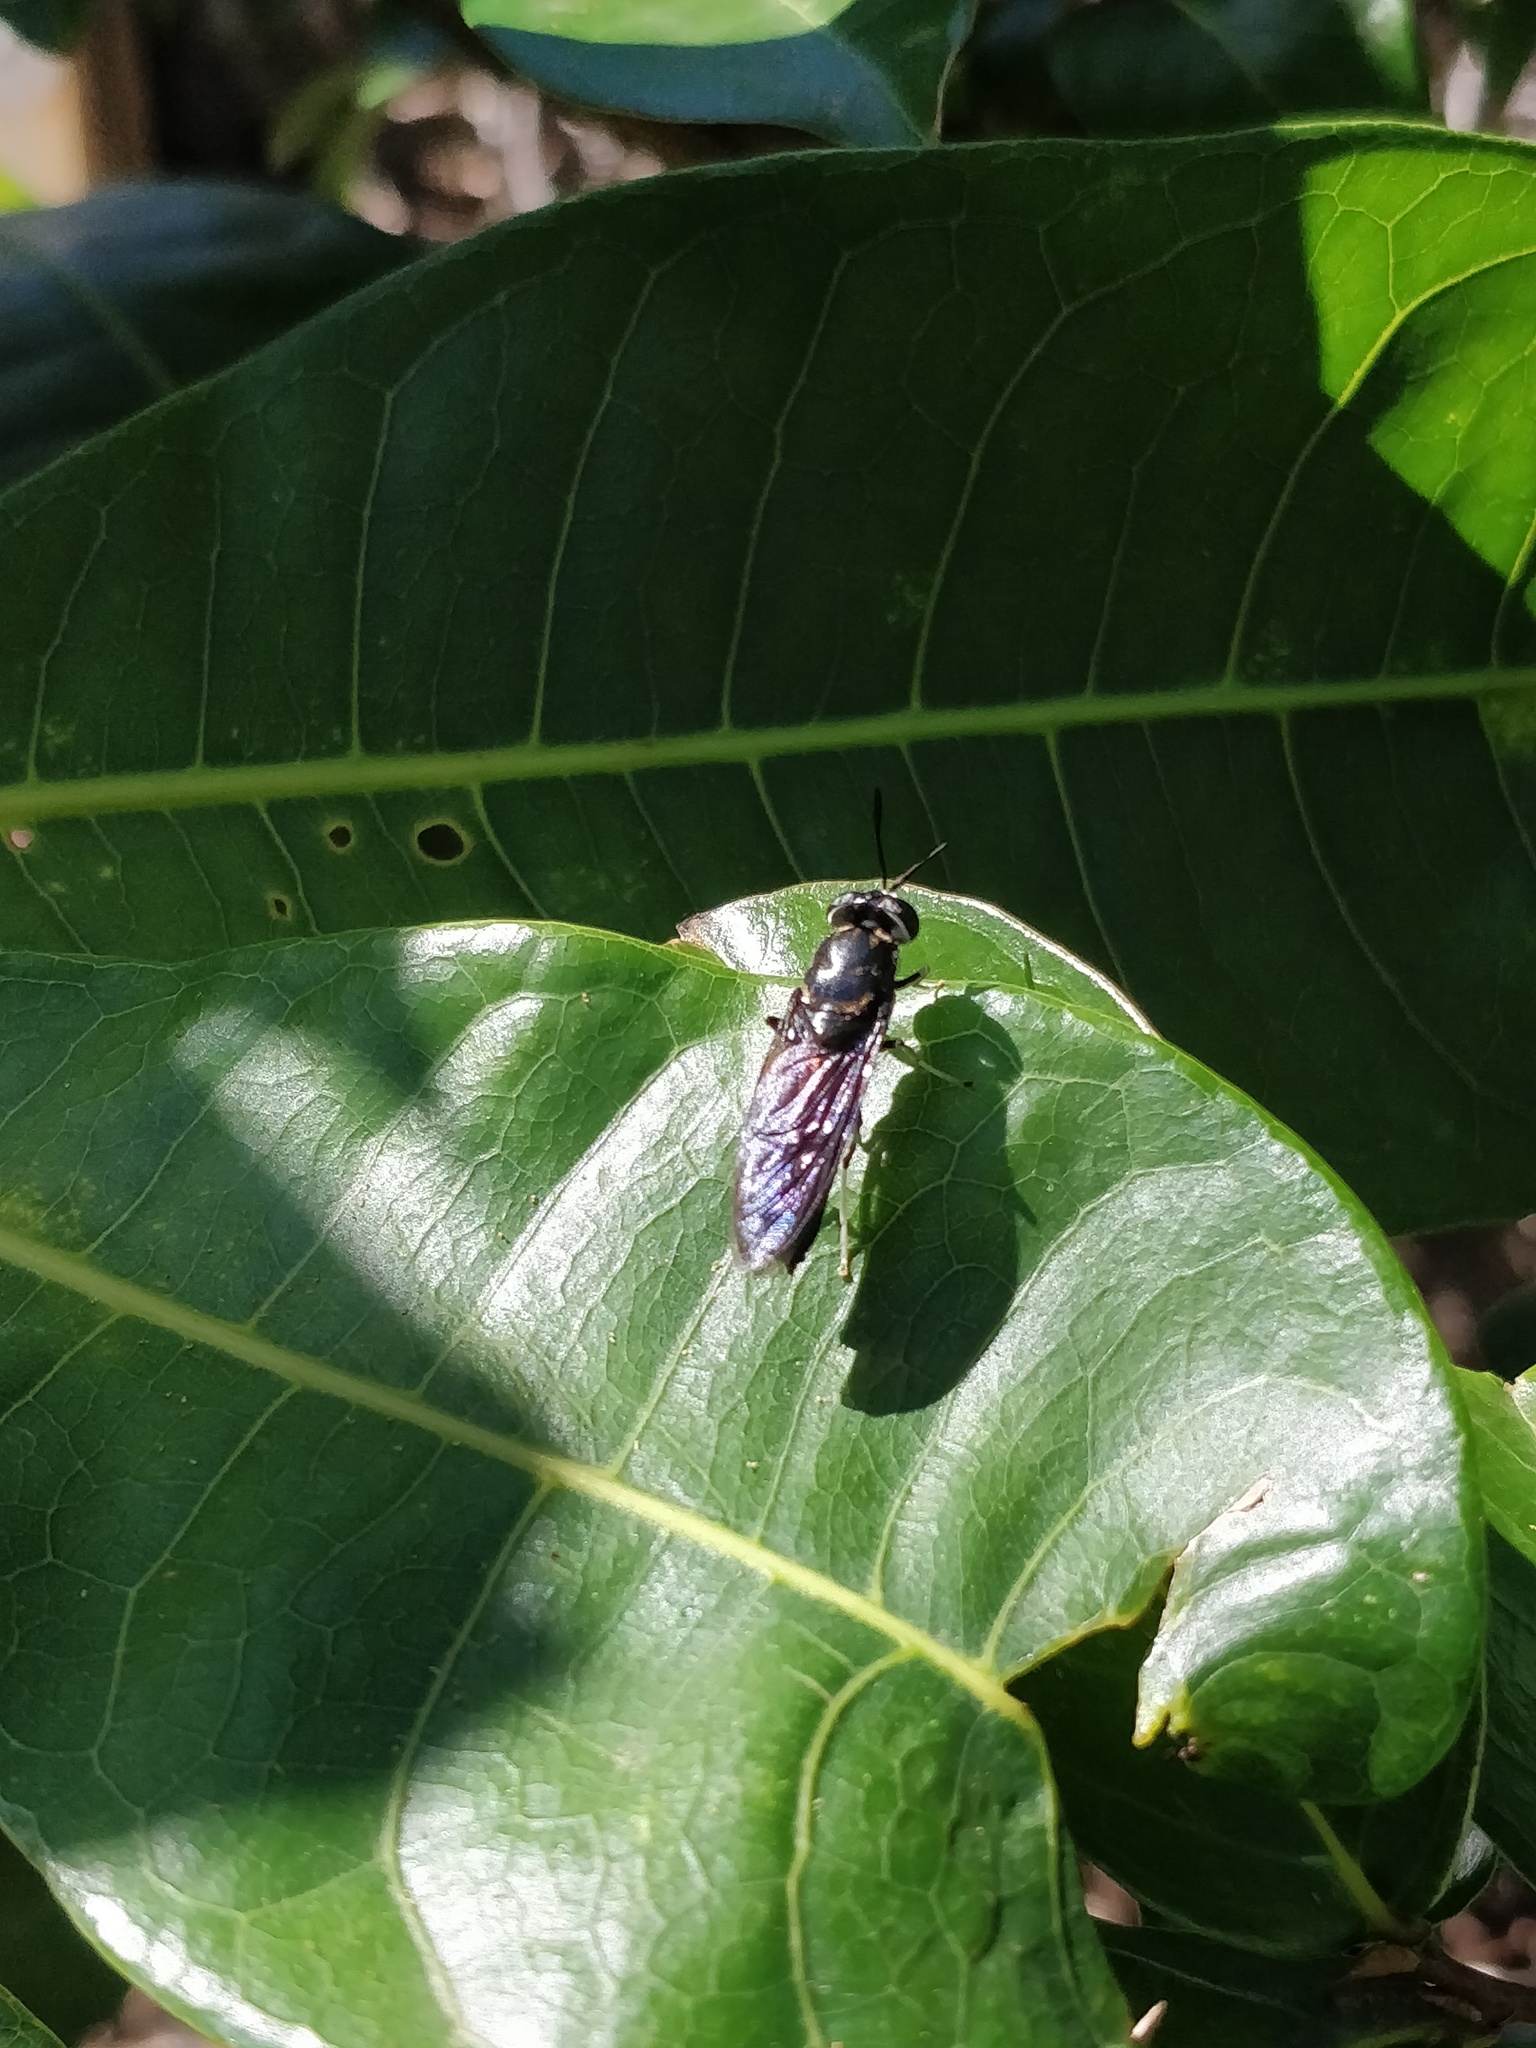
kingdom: Animalia
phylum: Arthropoda
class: Insecta
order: Diptera
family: Stratiomyidae
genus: Hermetia
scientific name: Hermetia illucens
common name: Black soldier fly
